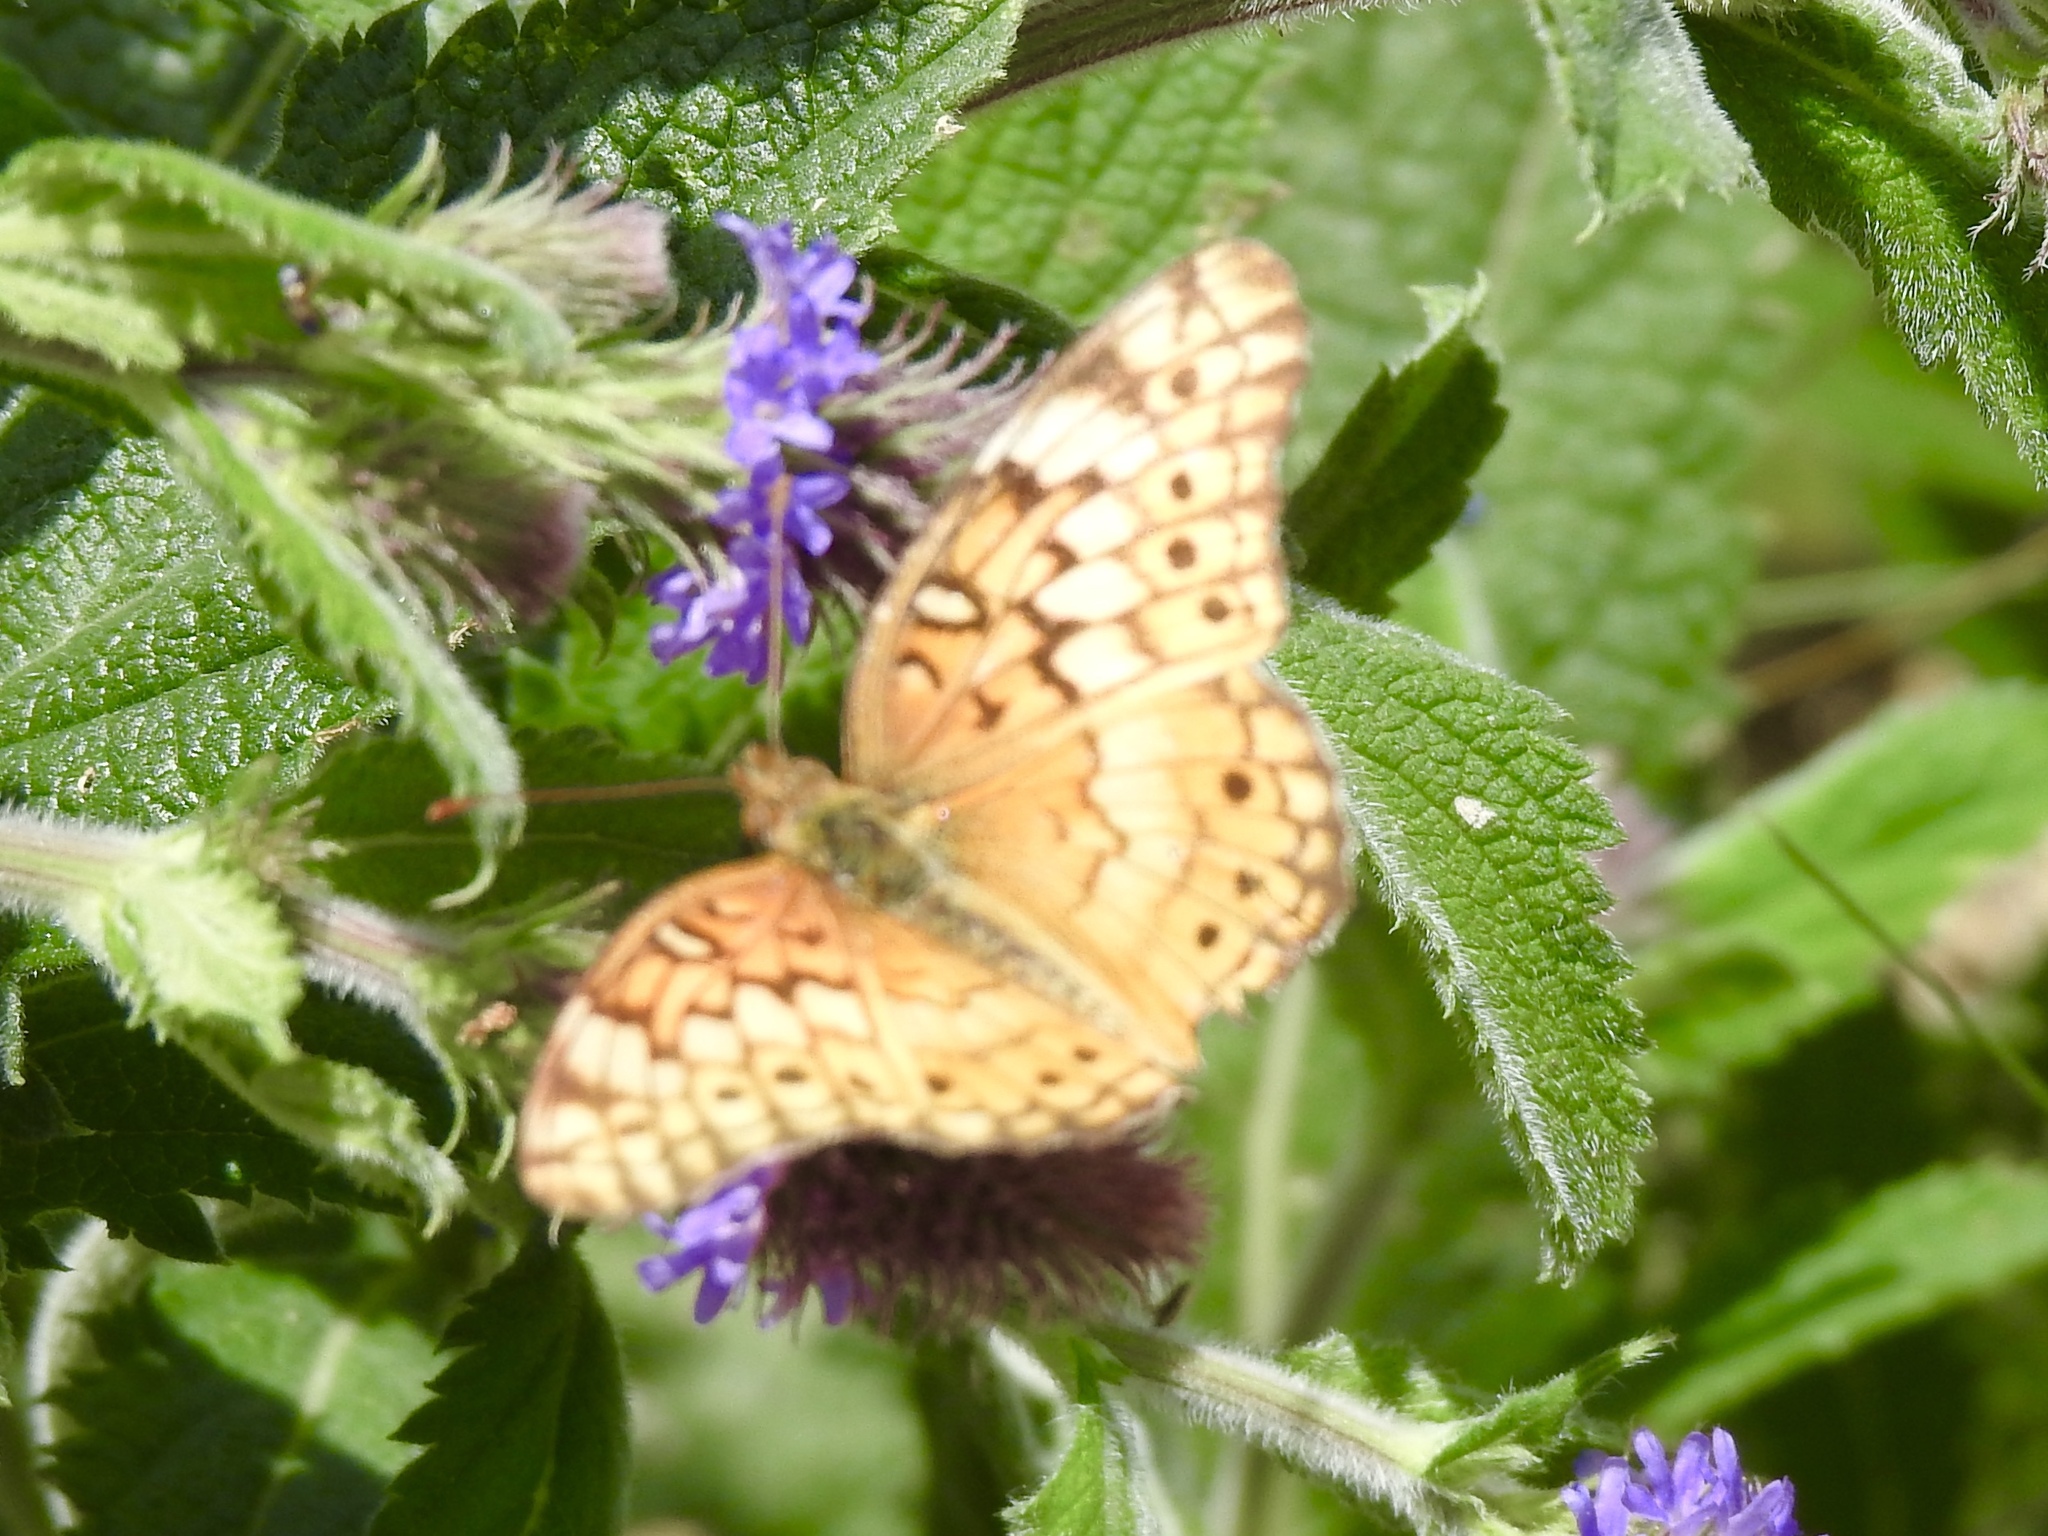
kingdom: Animalia
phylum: Arthropoda
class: Insecta
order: Lepidoptera
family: Nymphalidae
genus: Euptoieta
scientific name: Euptoieta claudia
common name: Variegated fritillary
